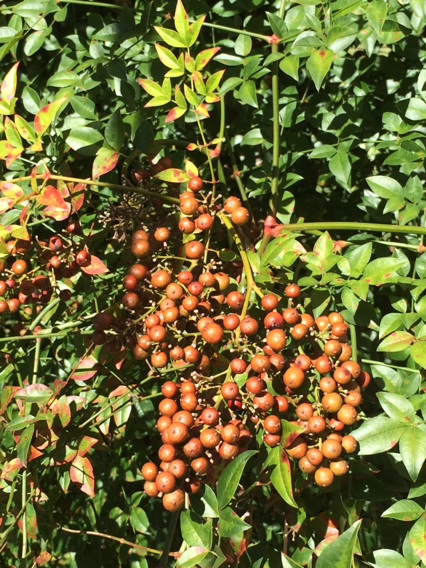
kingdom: Plantae
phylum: Tracheophyta
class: Magnoliopsida
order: Ranunculales
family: Berberidaceae
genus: Nandina
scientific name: Nandina domestica
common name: Sacred bamboo
